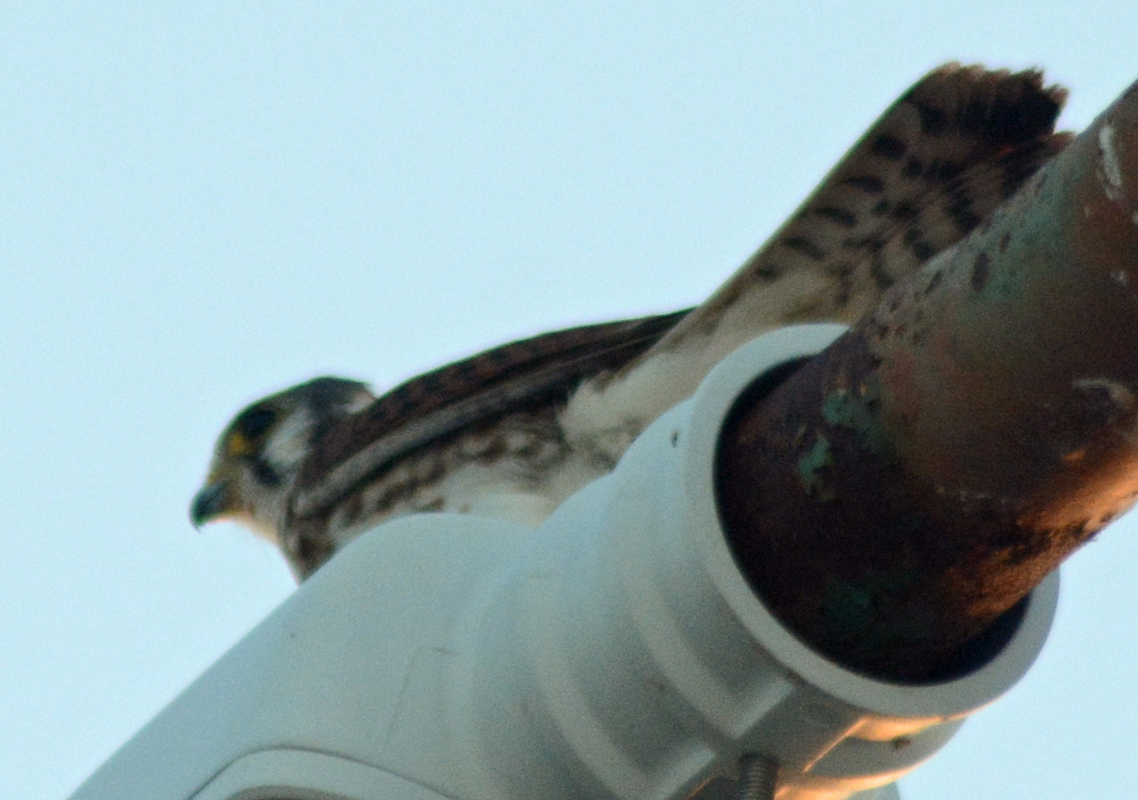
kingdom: Animalia
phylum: Chordata
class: Aves
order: Falconiformes
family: Falconidae
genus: Falco
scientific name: Falco sparverius
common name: American kestrel
